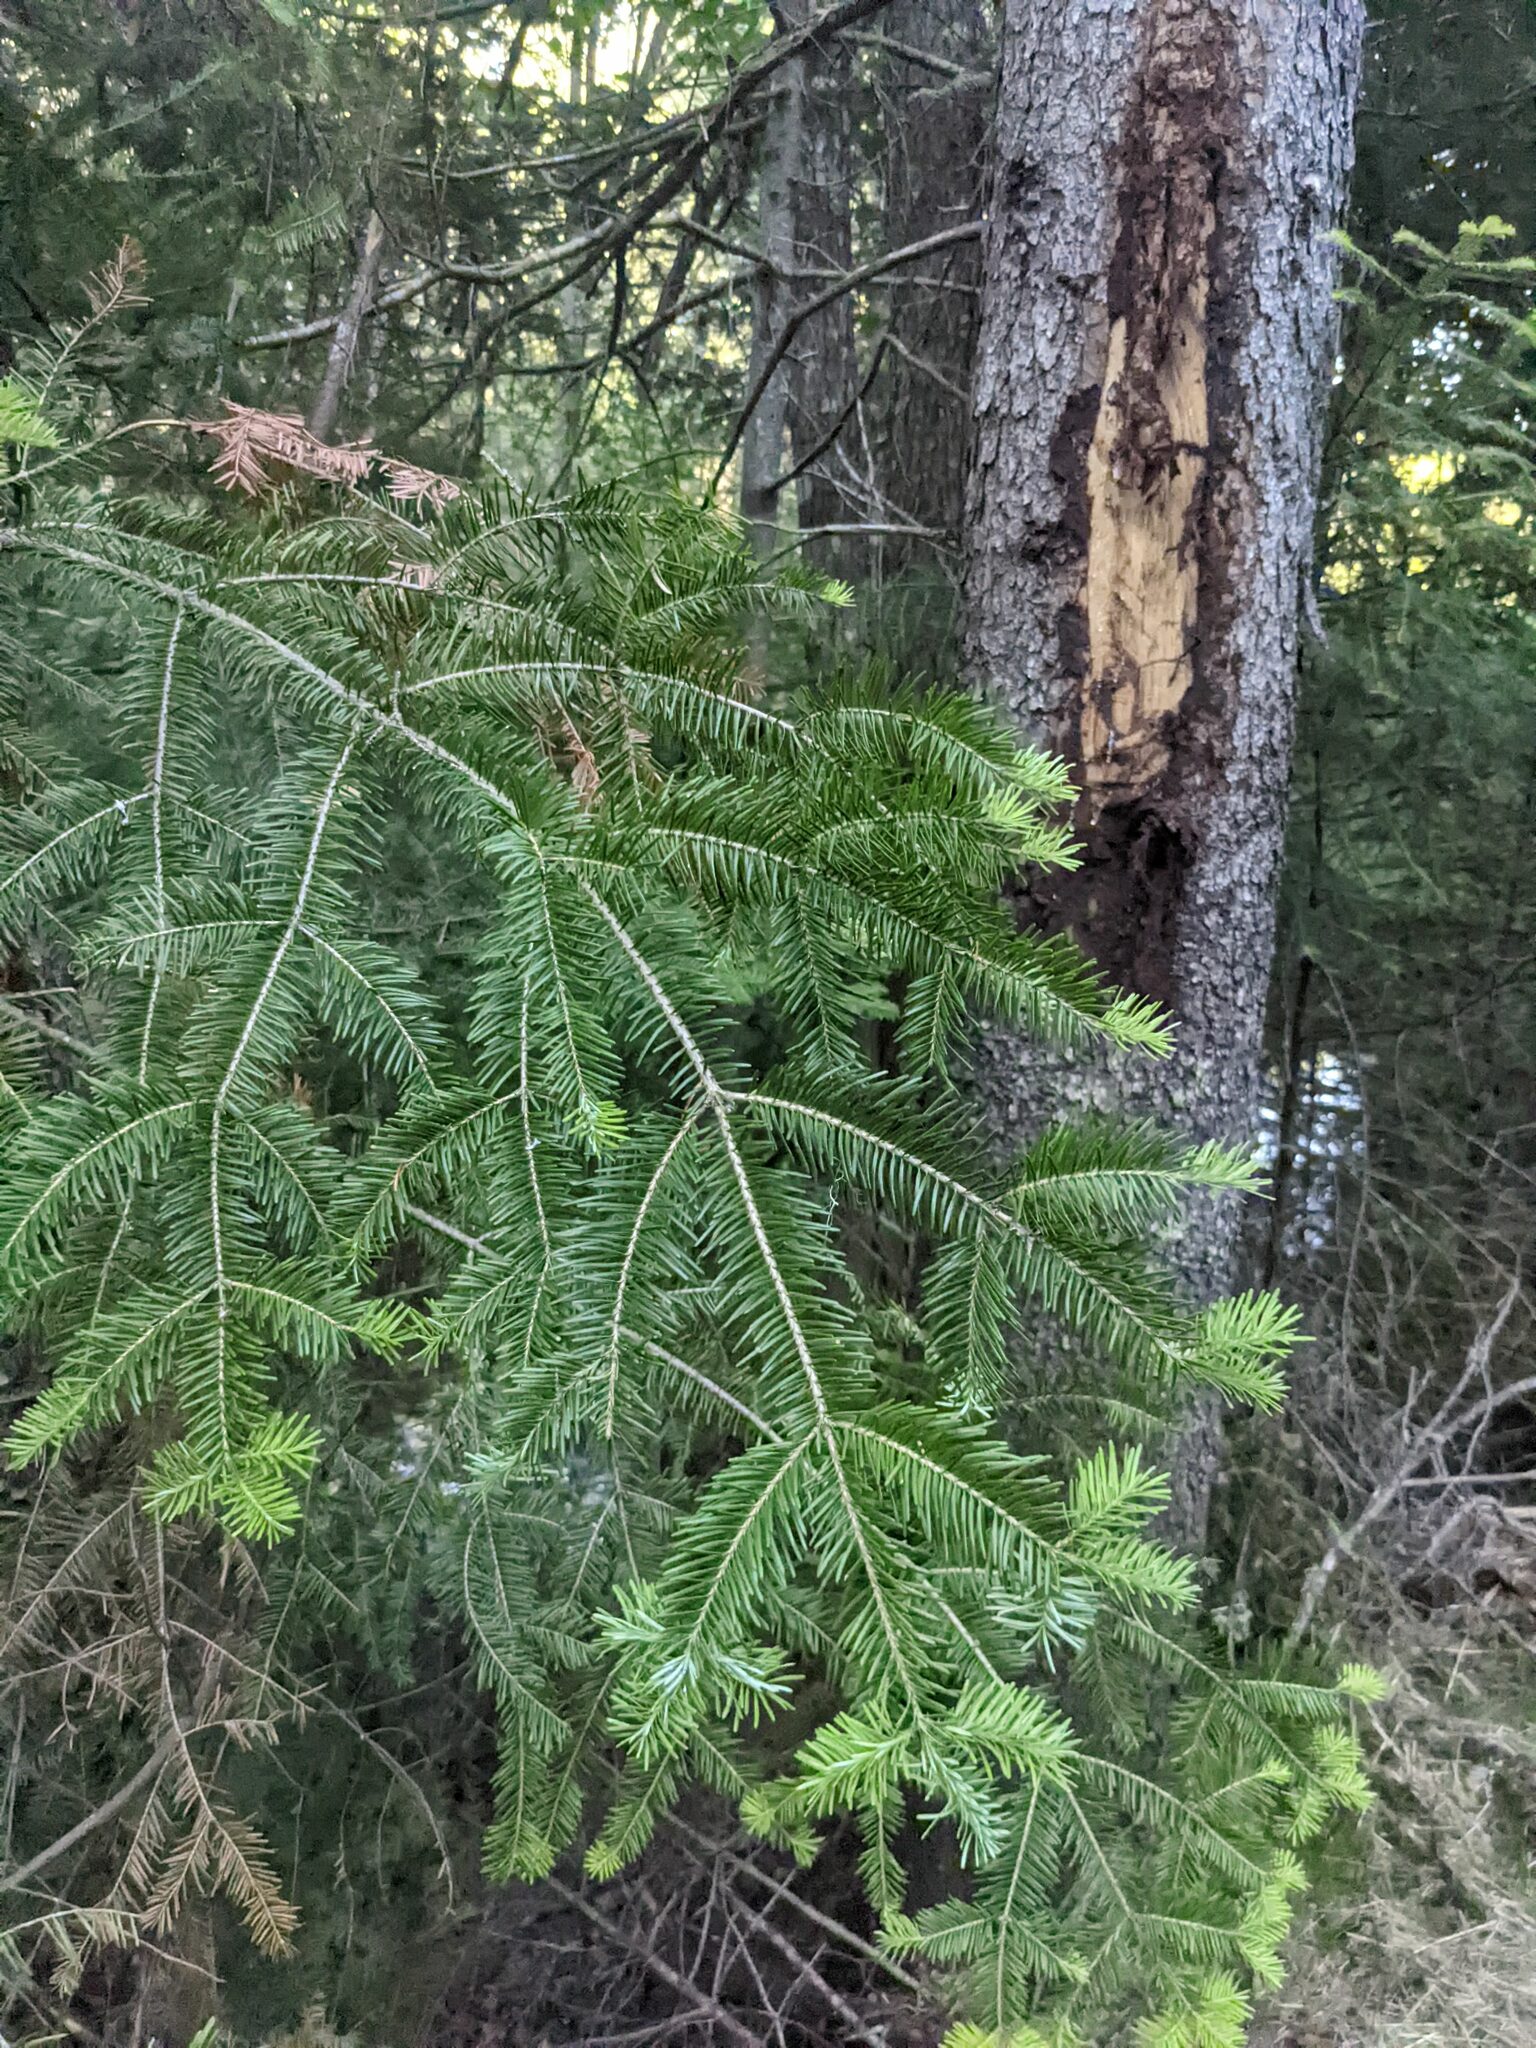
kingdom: Plantae
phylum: Tracheophyta
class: Pinopsida
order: Pinales
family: Pinaceae
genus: Abies
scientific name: Abies balsamea
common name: Balsam fir
